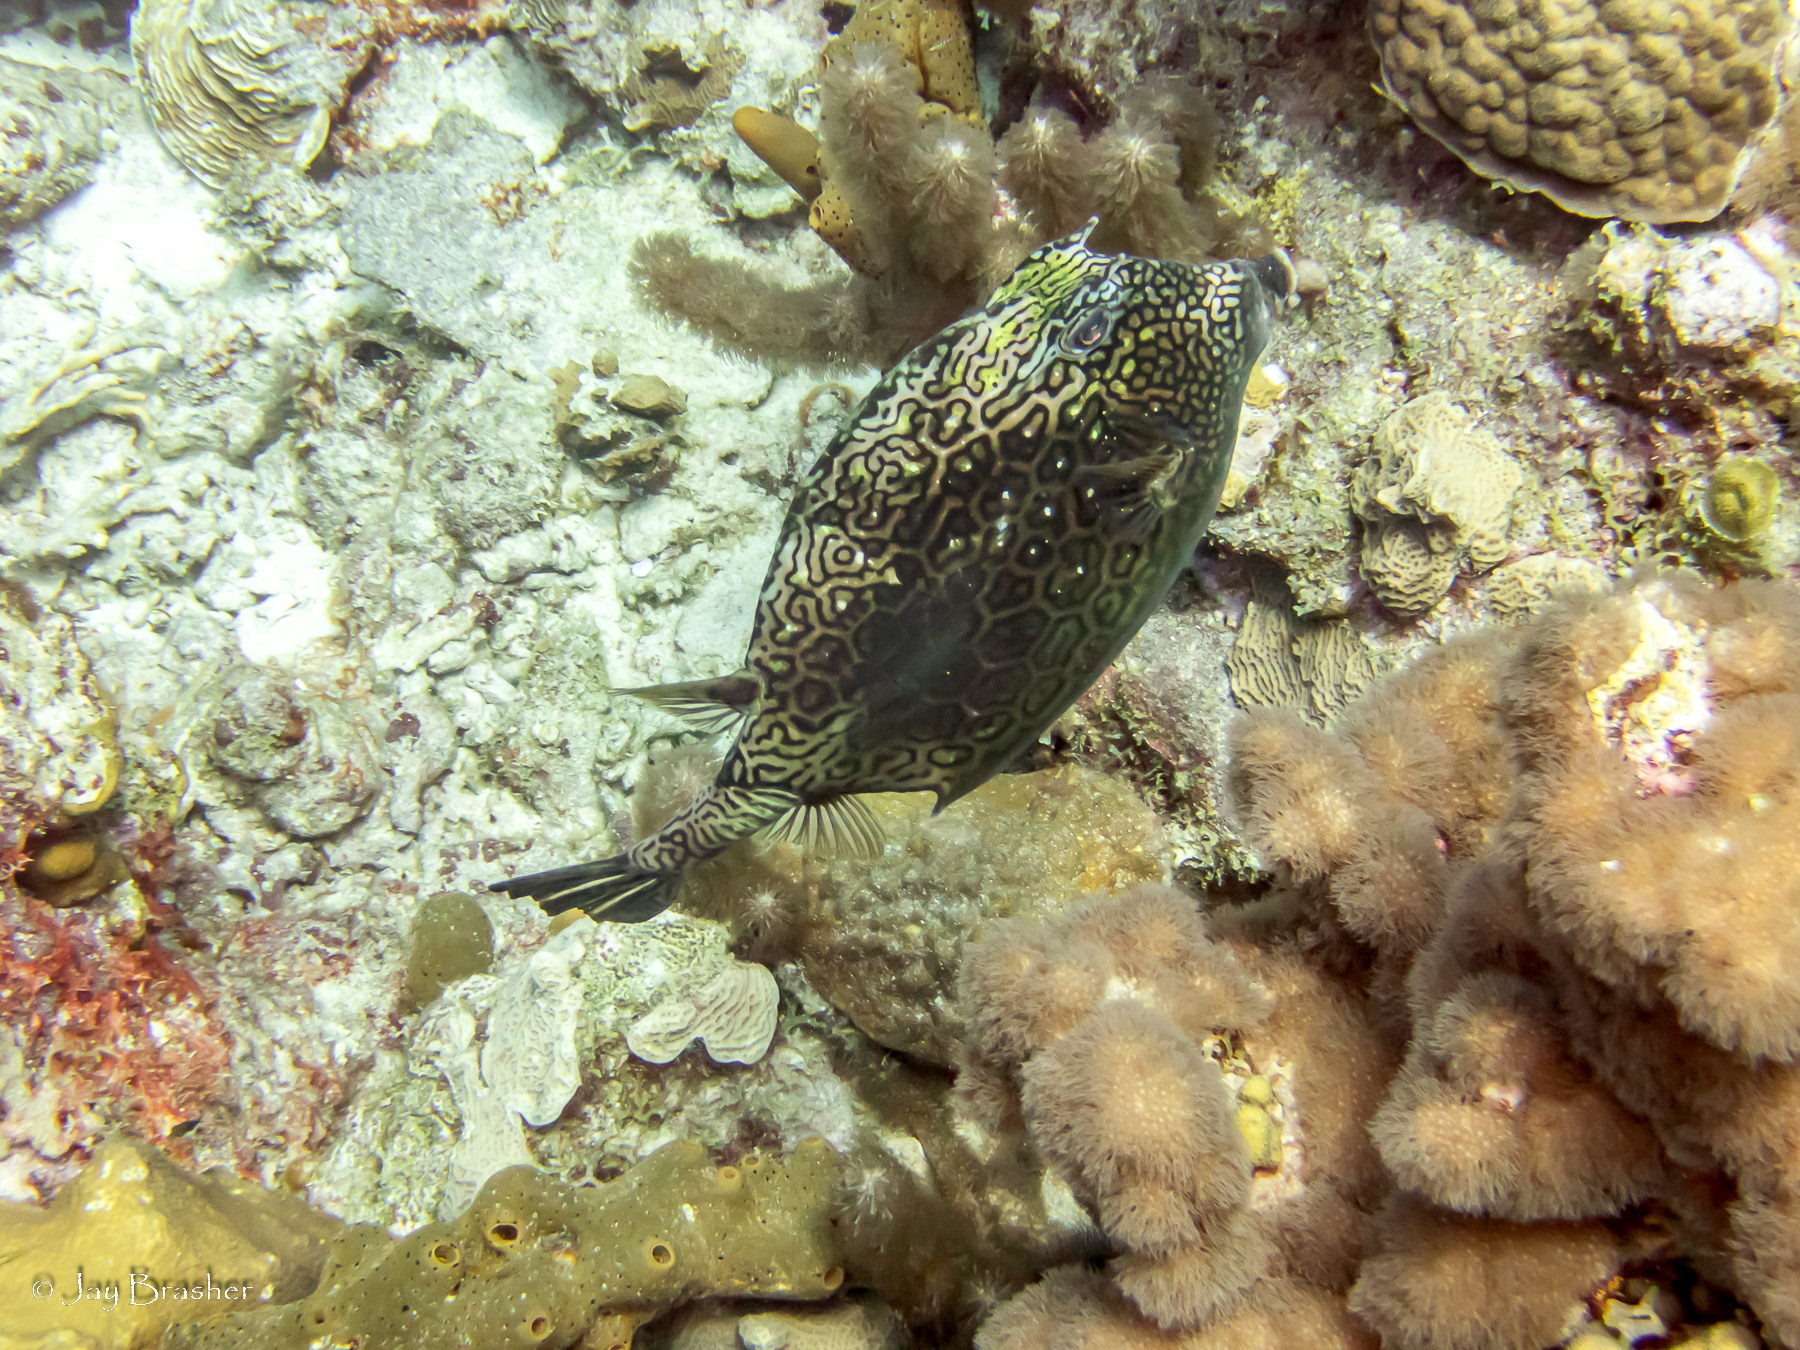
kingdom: Animalia
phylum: Cnidaria
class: Anthozoa
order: Scleractinia
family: Poritidae
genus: Porites
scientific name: Porites astreoides
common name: Mustard hill coral
